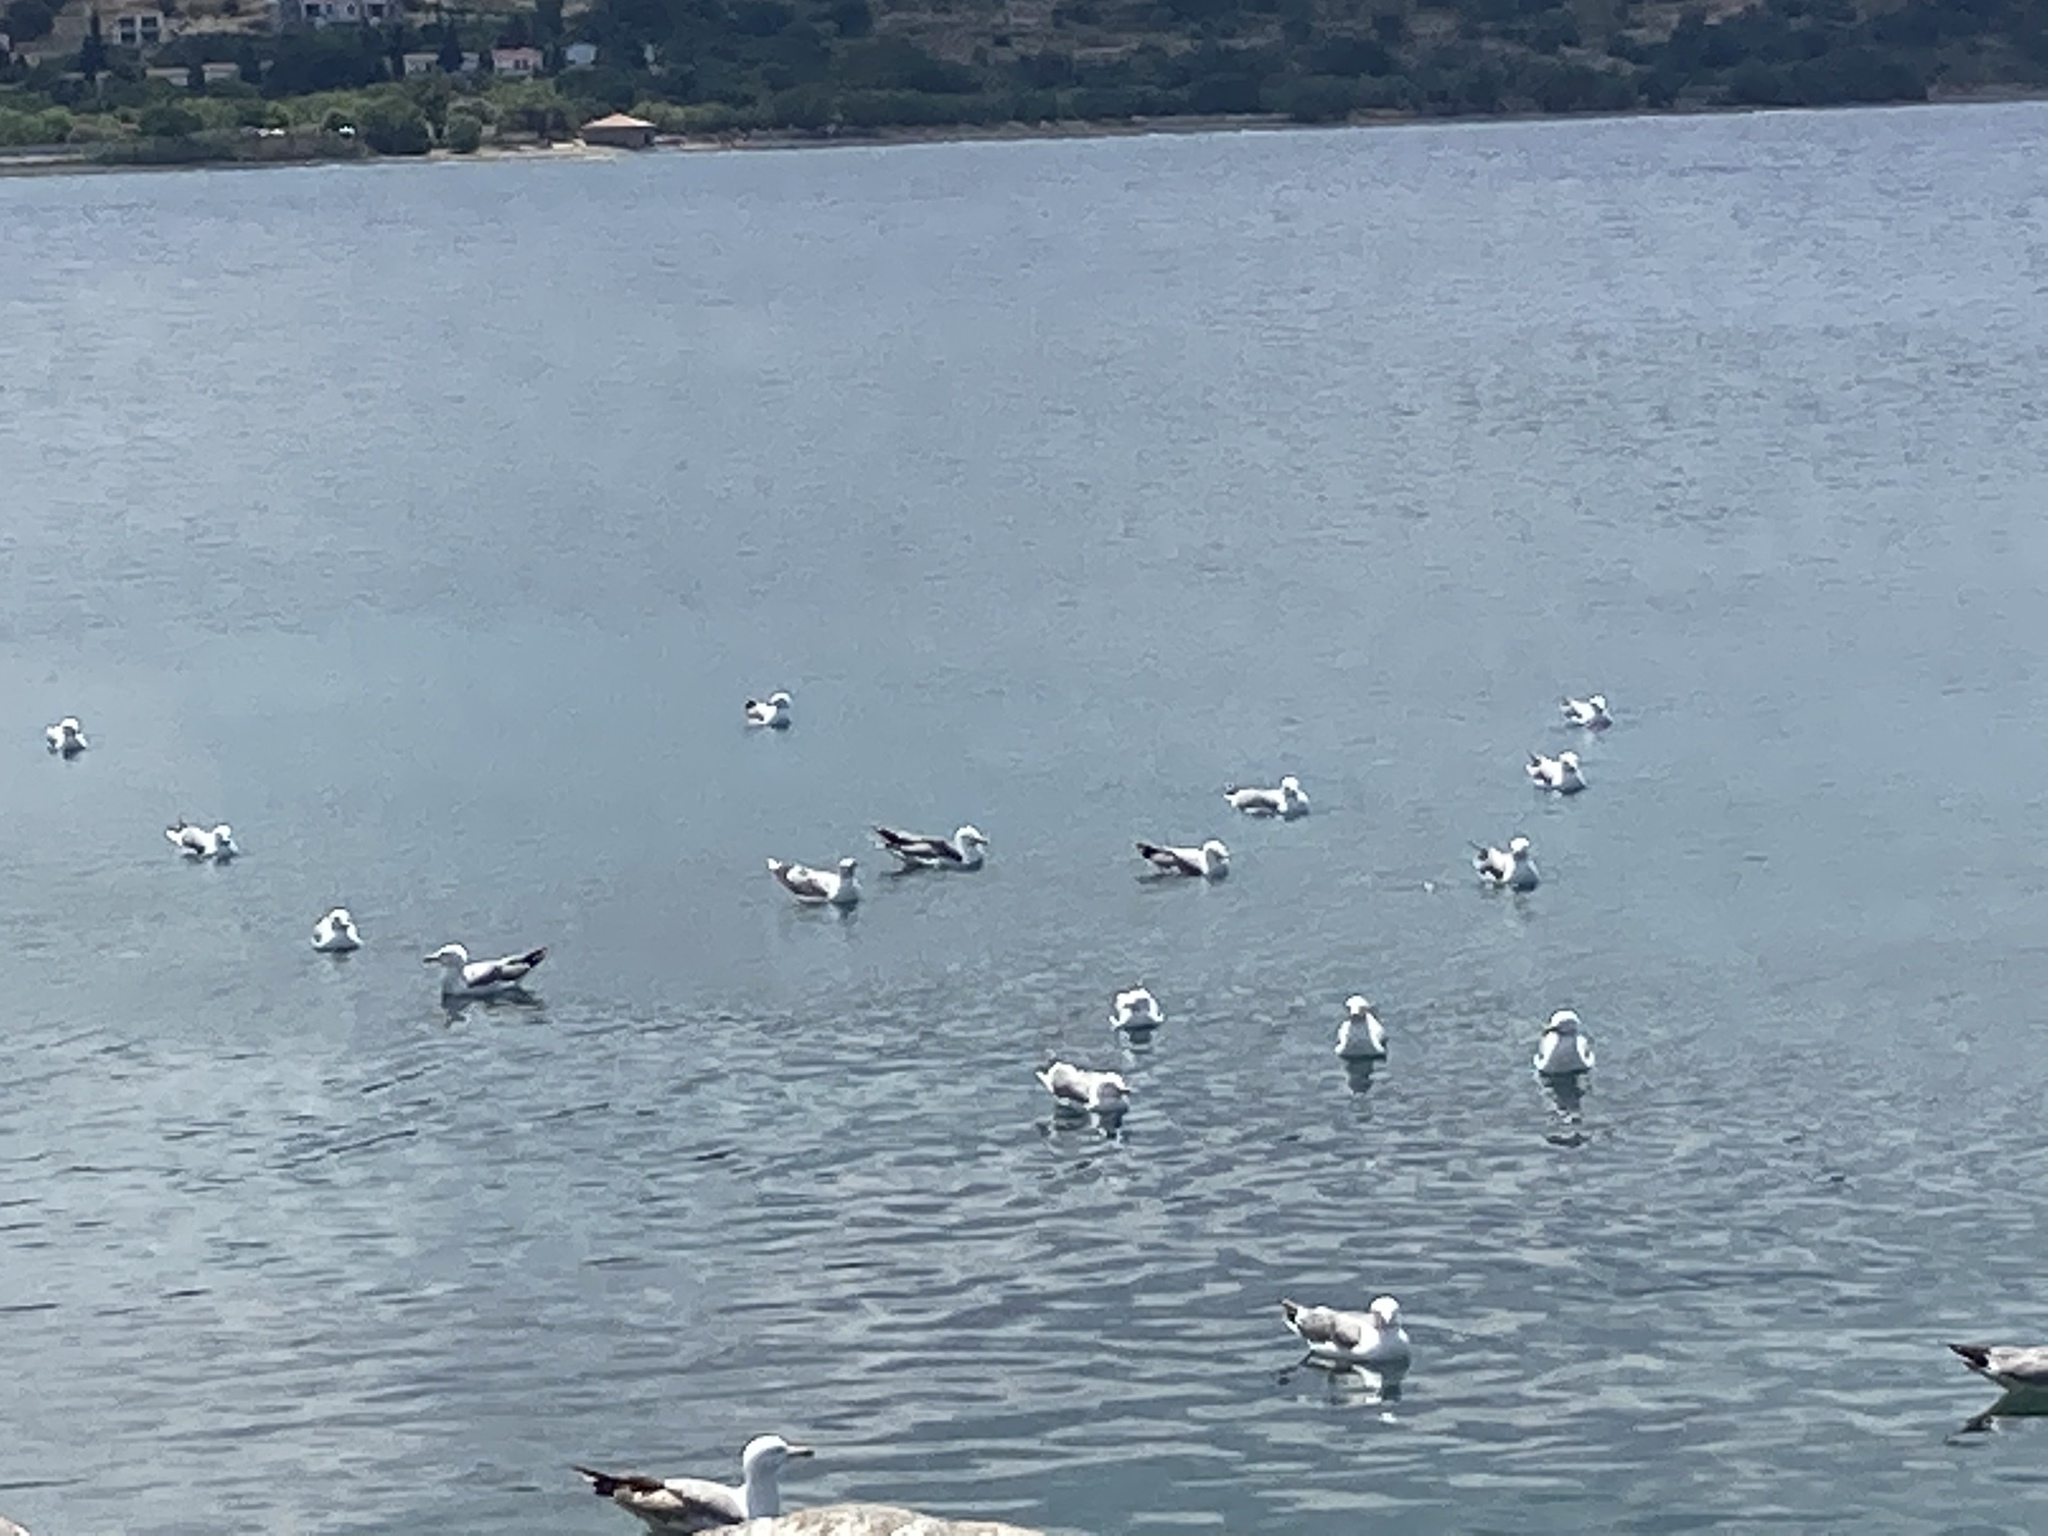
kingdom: Animalia
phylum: Chordata
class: Aves
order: Charadriiformes
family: Laridae
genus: Larus
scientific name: Larus michahellis
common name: Yellow-legged gull
